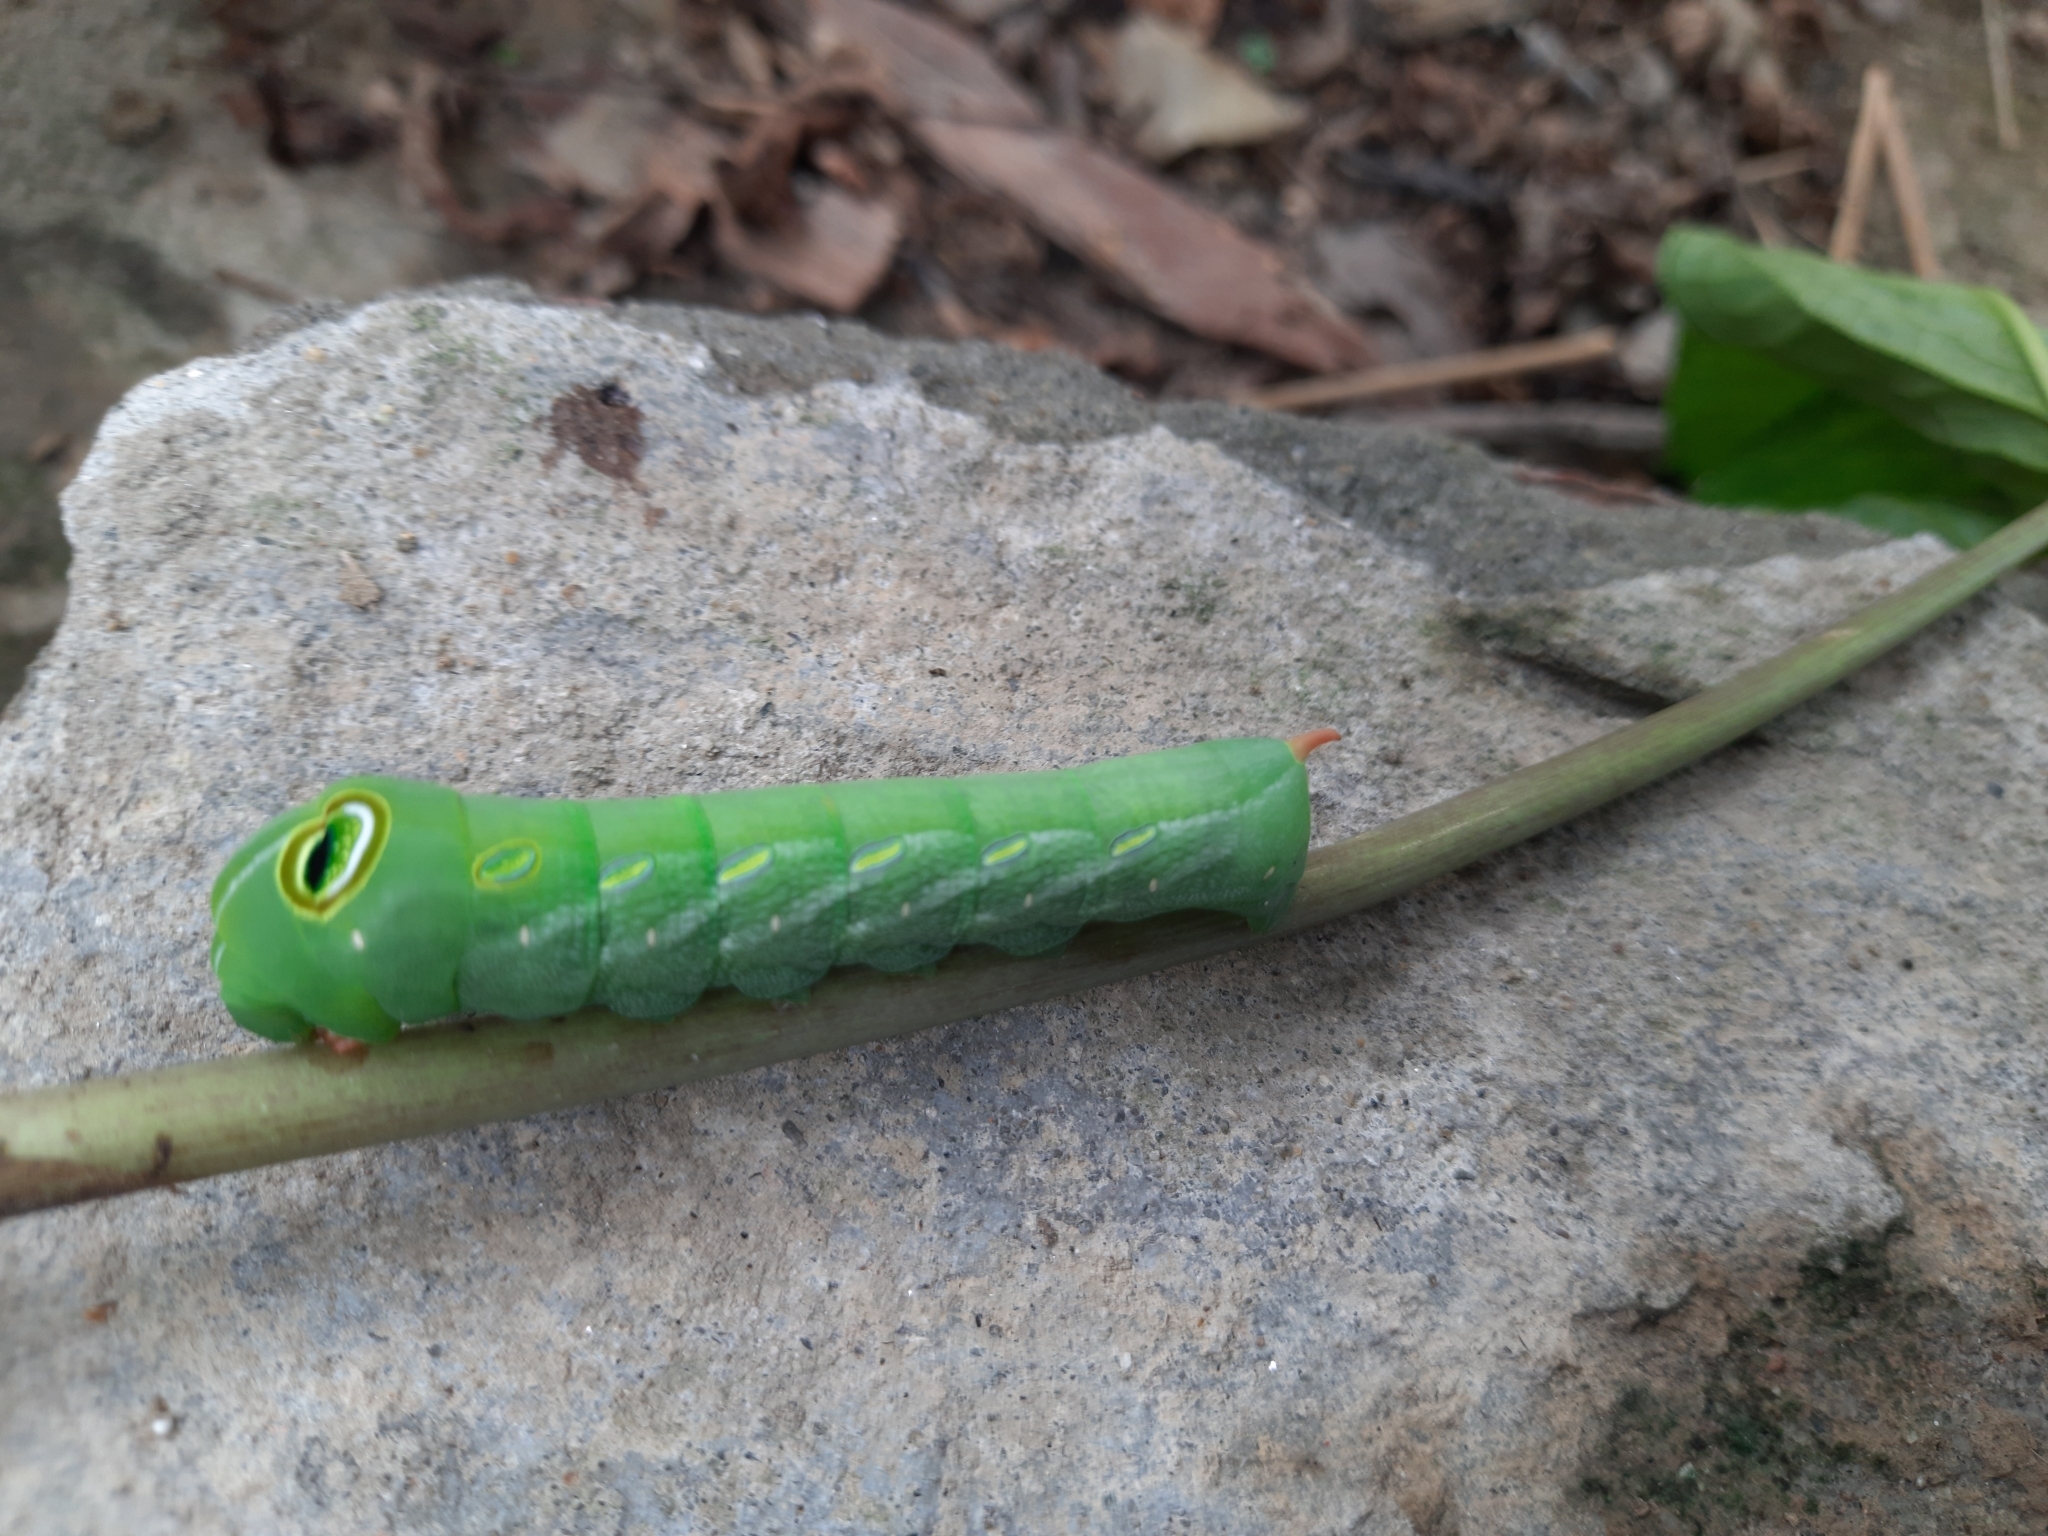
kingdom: Animalia
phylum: Arthropoda
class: Insecta
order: Lepidoptera
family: Sphingidae
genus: Pergesa
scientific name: Pergesa acteus
